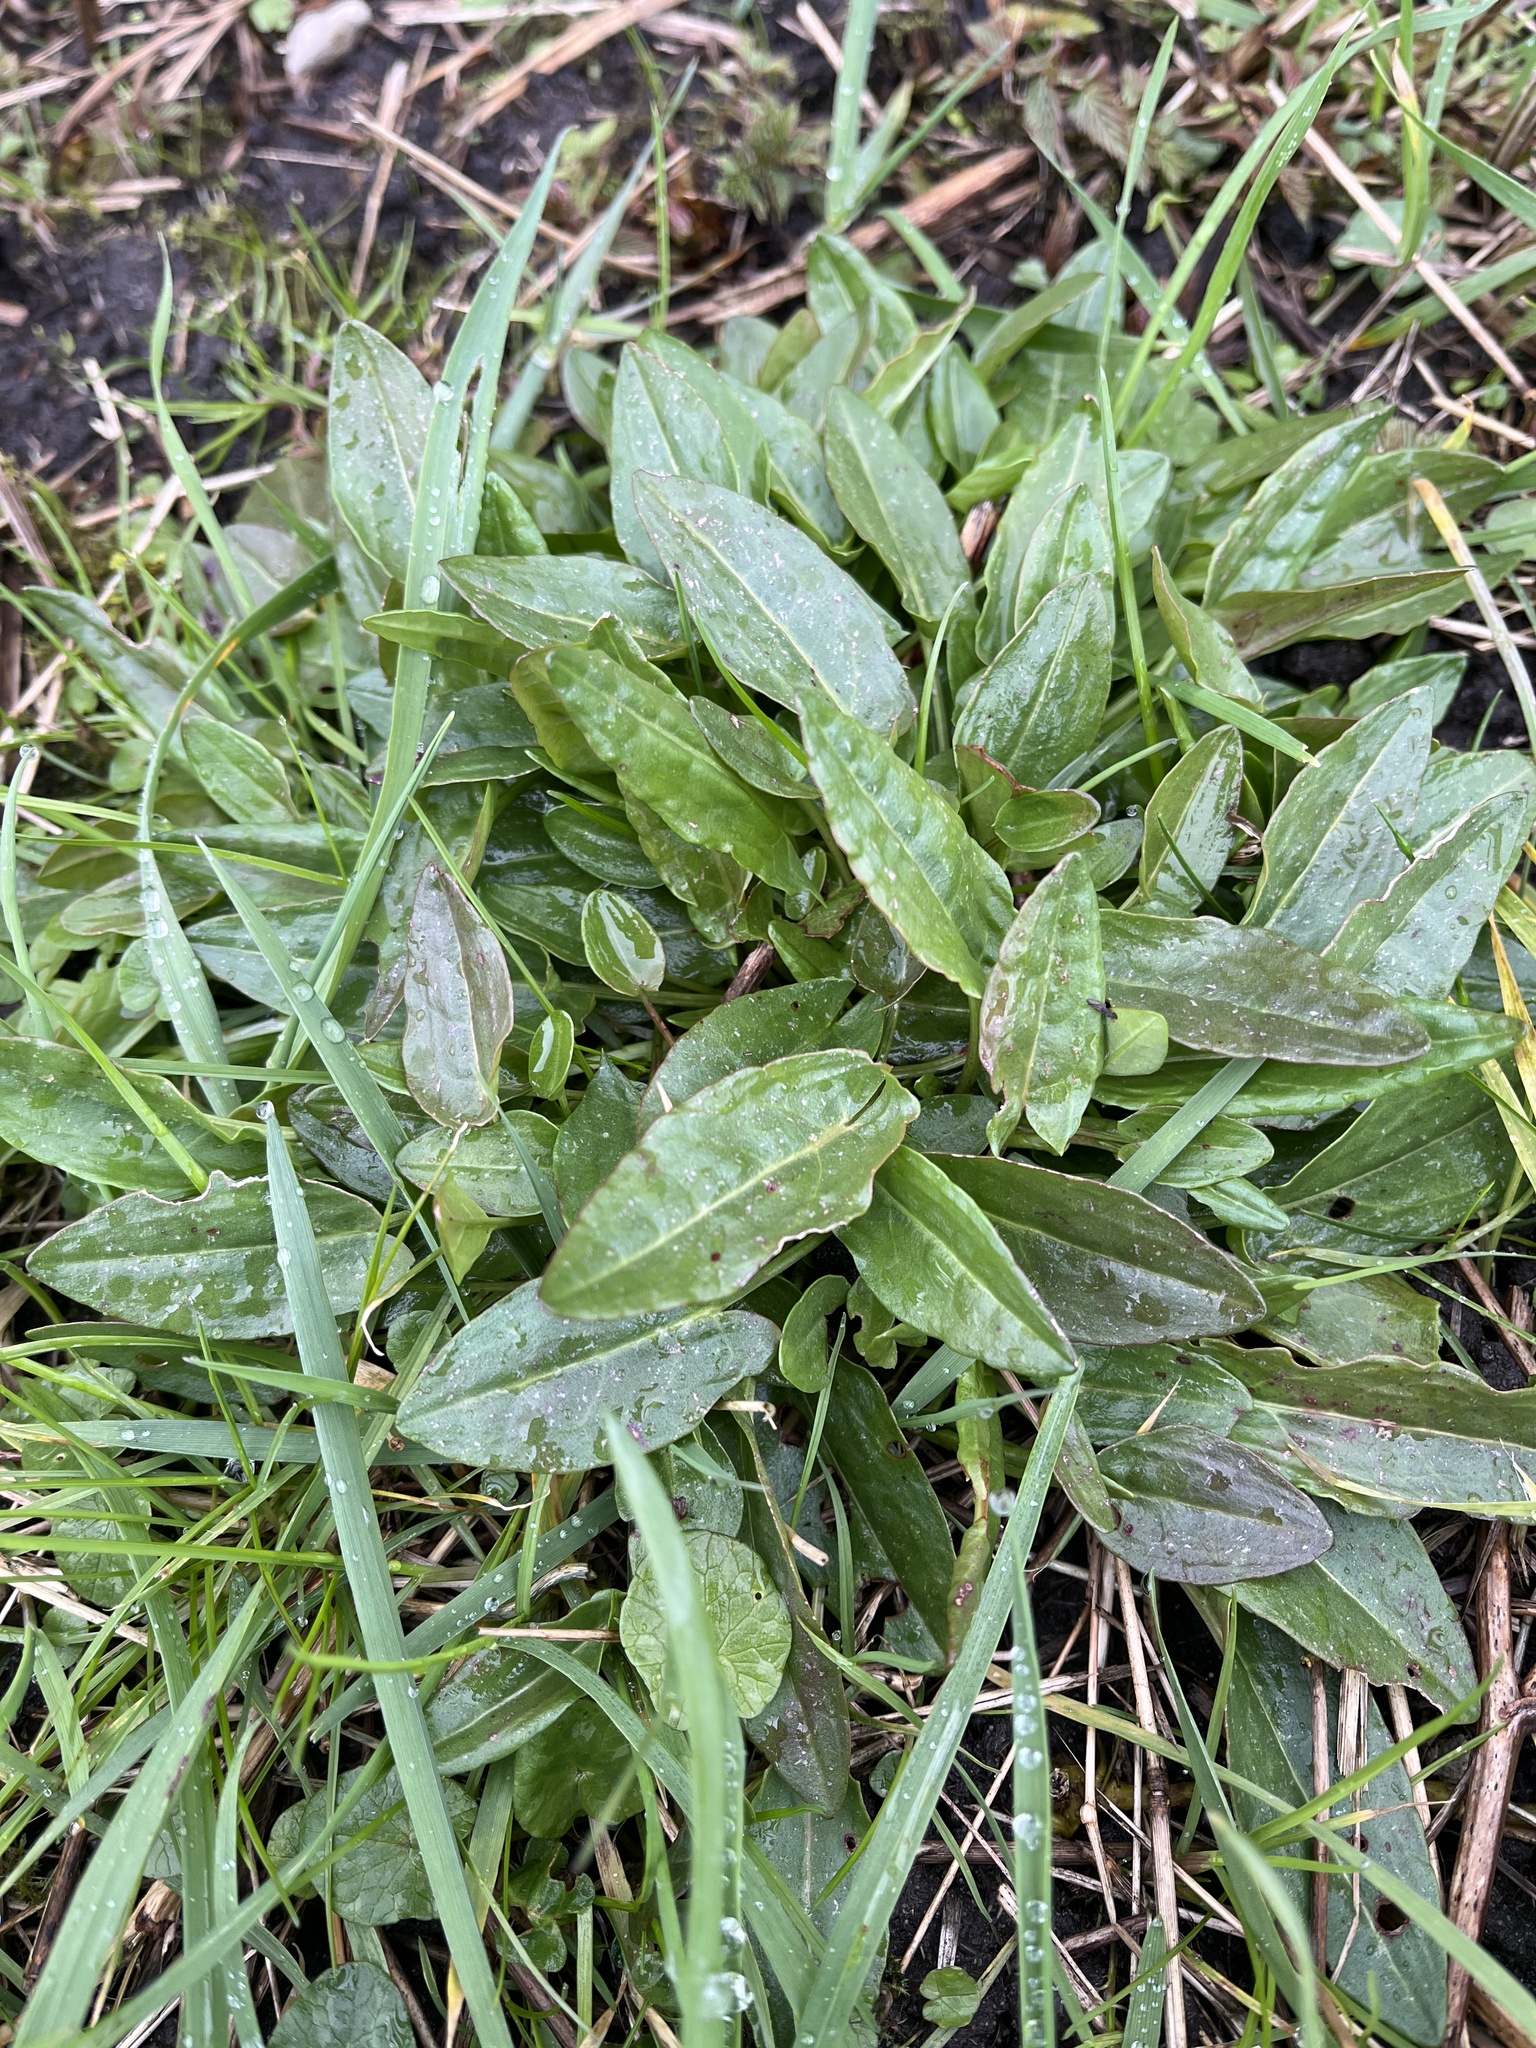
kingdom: Plantae
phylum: Tracheophyta
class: Magnoliopsida
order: Caryophyllales
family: Polygonaceae
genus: Rumex
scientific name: Rumex acetosa
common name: Garden sorrel
